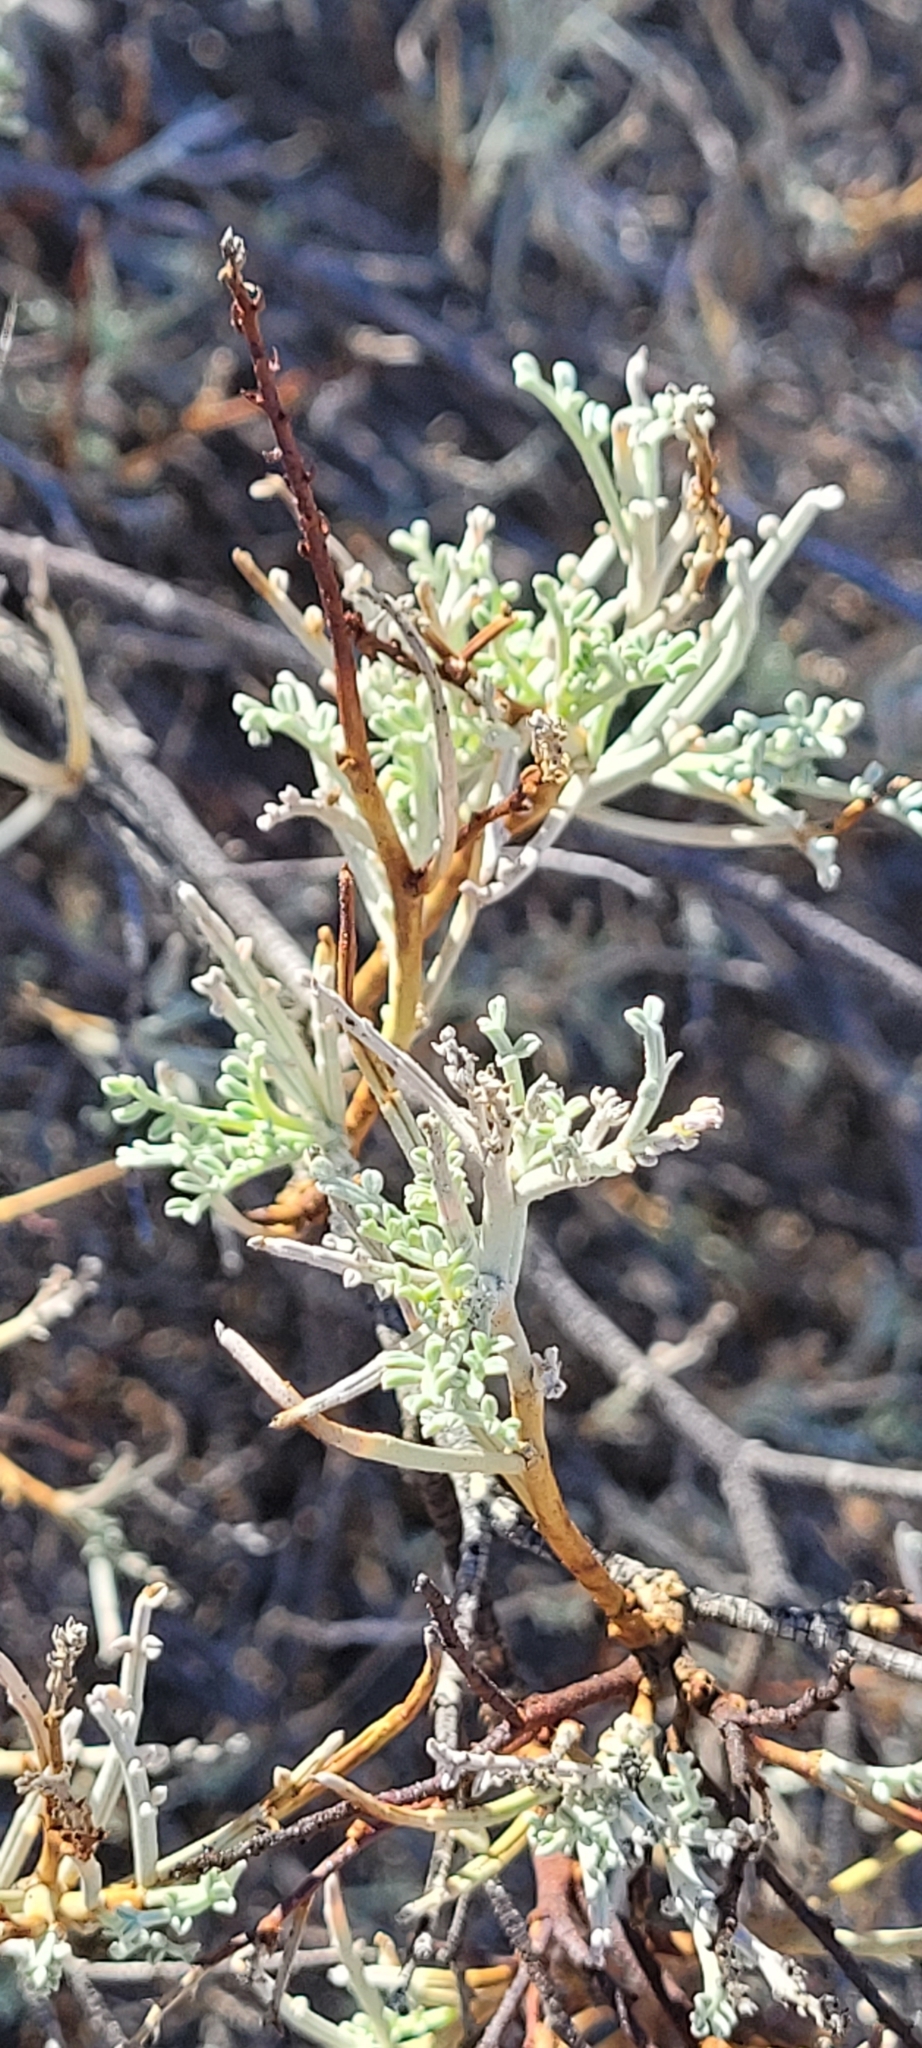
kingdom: Plantae
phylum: Tracheophyta
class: Magnoliopsida
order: Fabales
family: Fabaceae
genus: Adesmia
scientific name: Adesmia argentea
